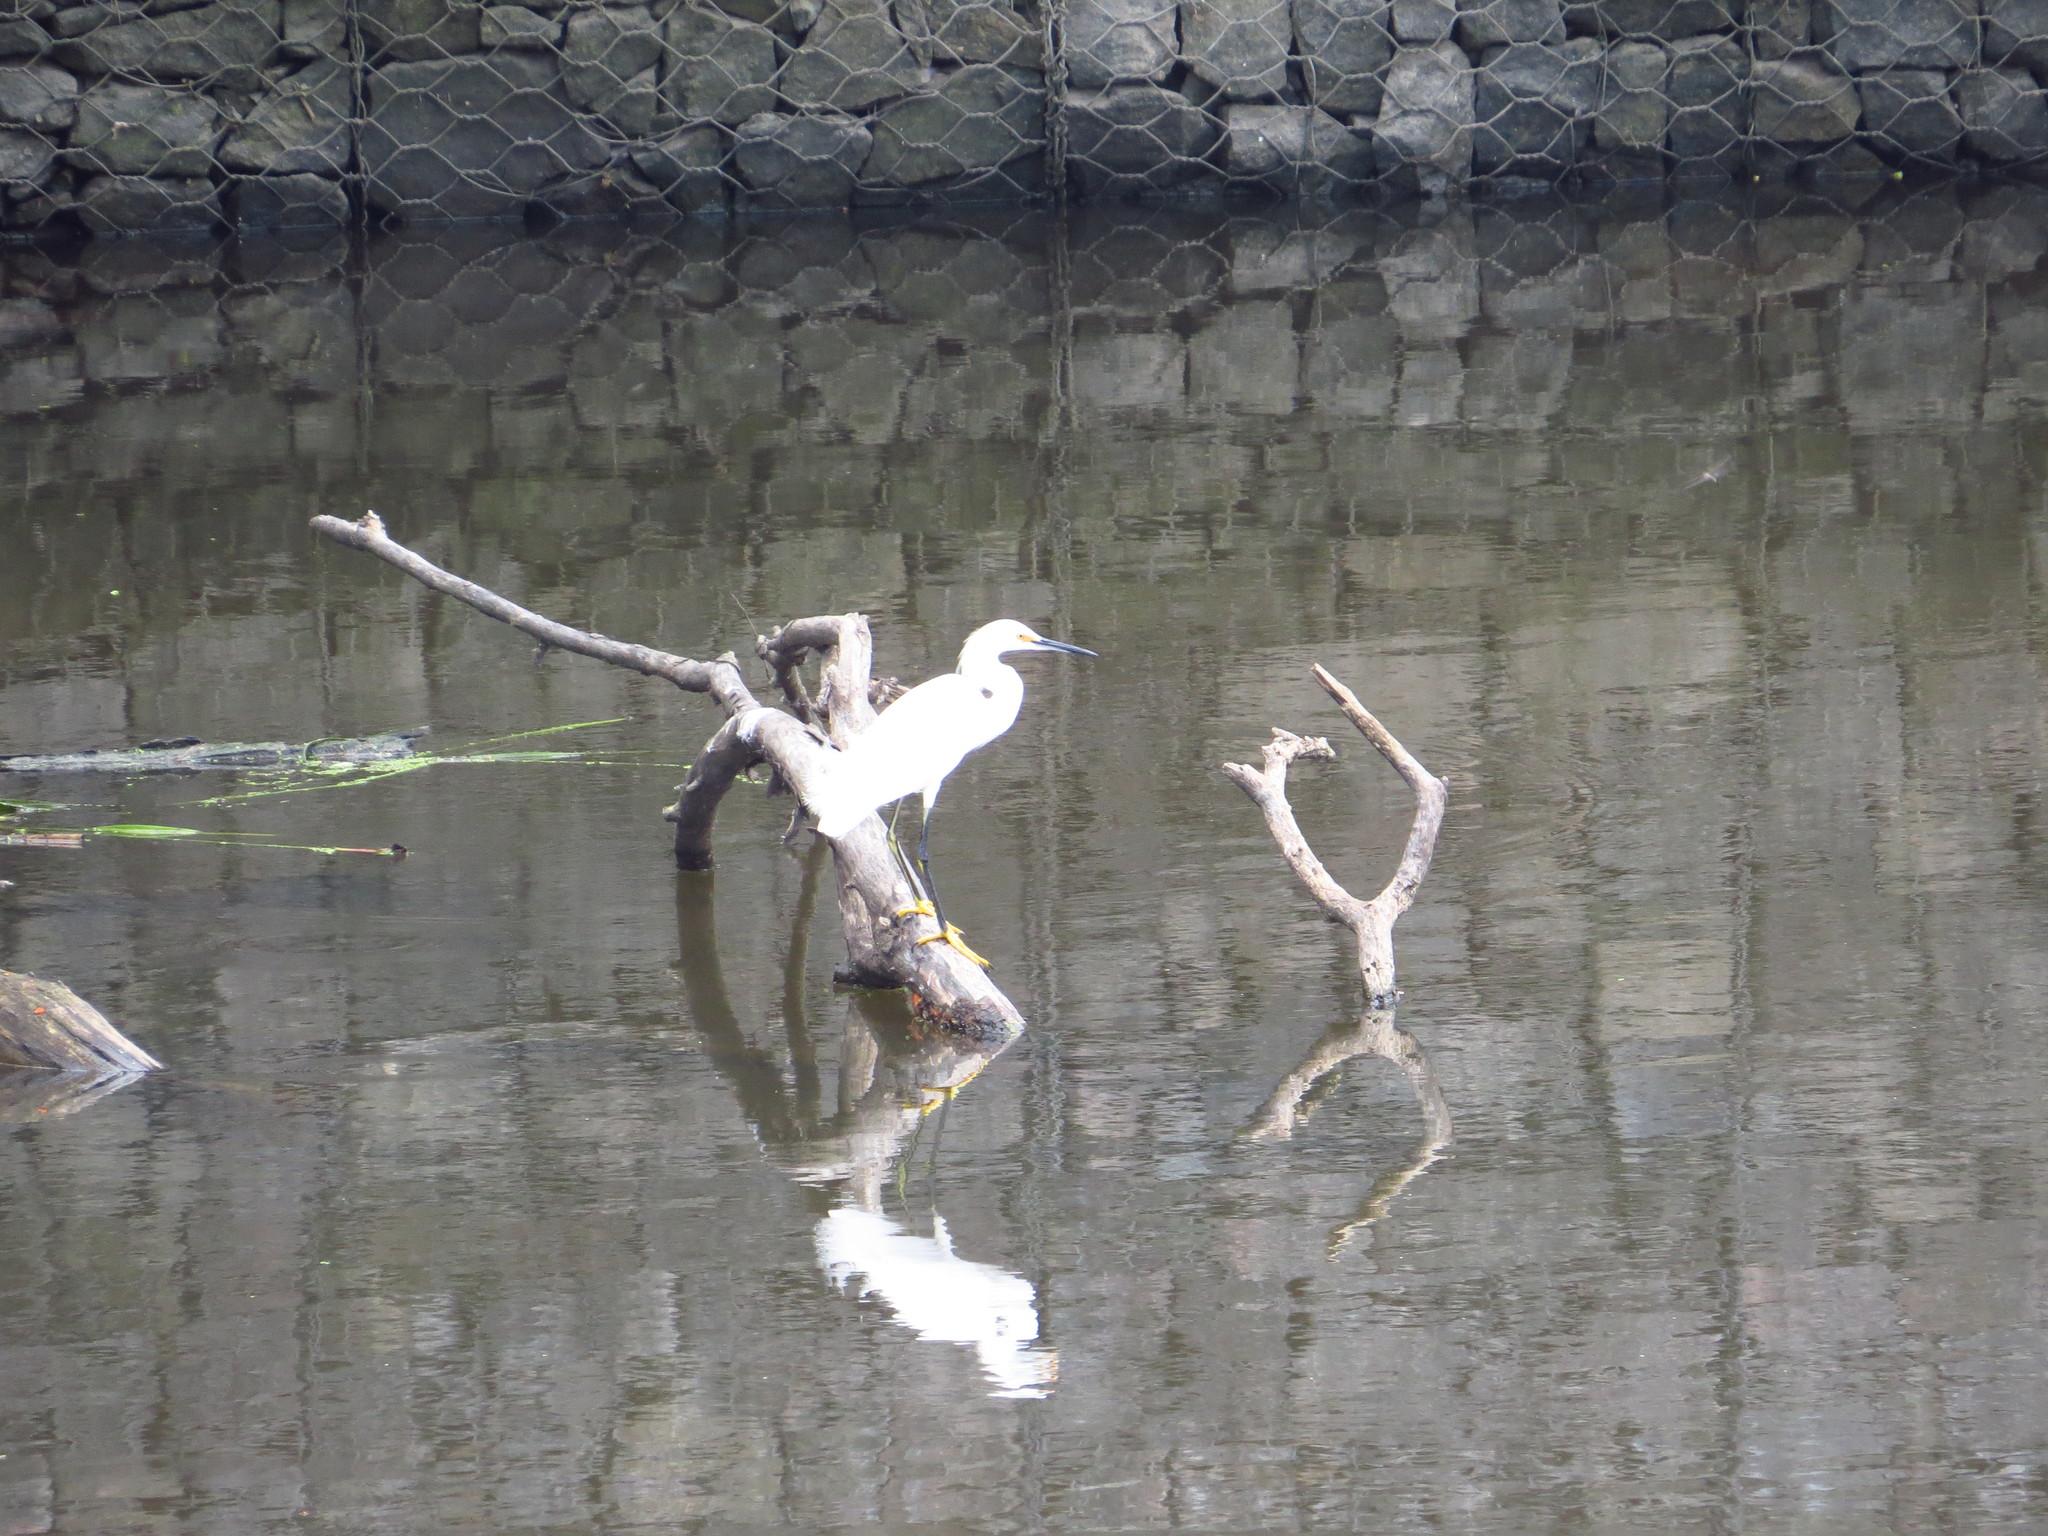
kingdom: Animalia
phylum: Chordata
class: Aves
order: Pelecaniformes
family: Ardeidae
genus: Egretta
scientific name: Egretta thula
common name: Snowy egret
